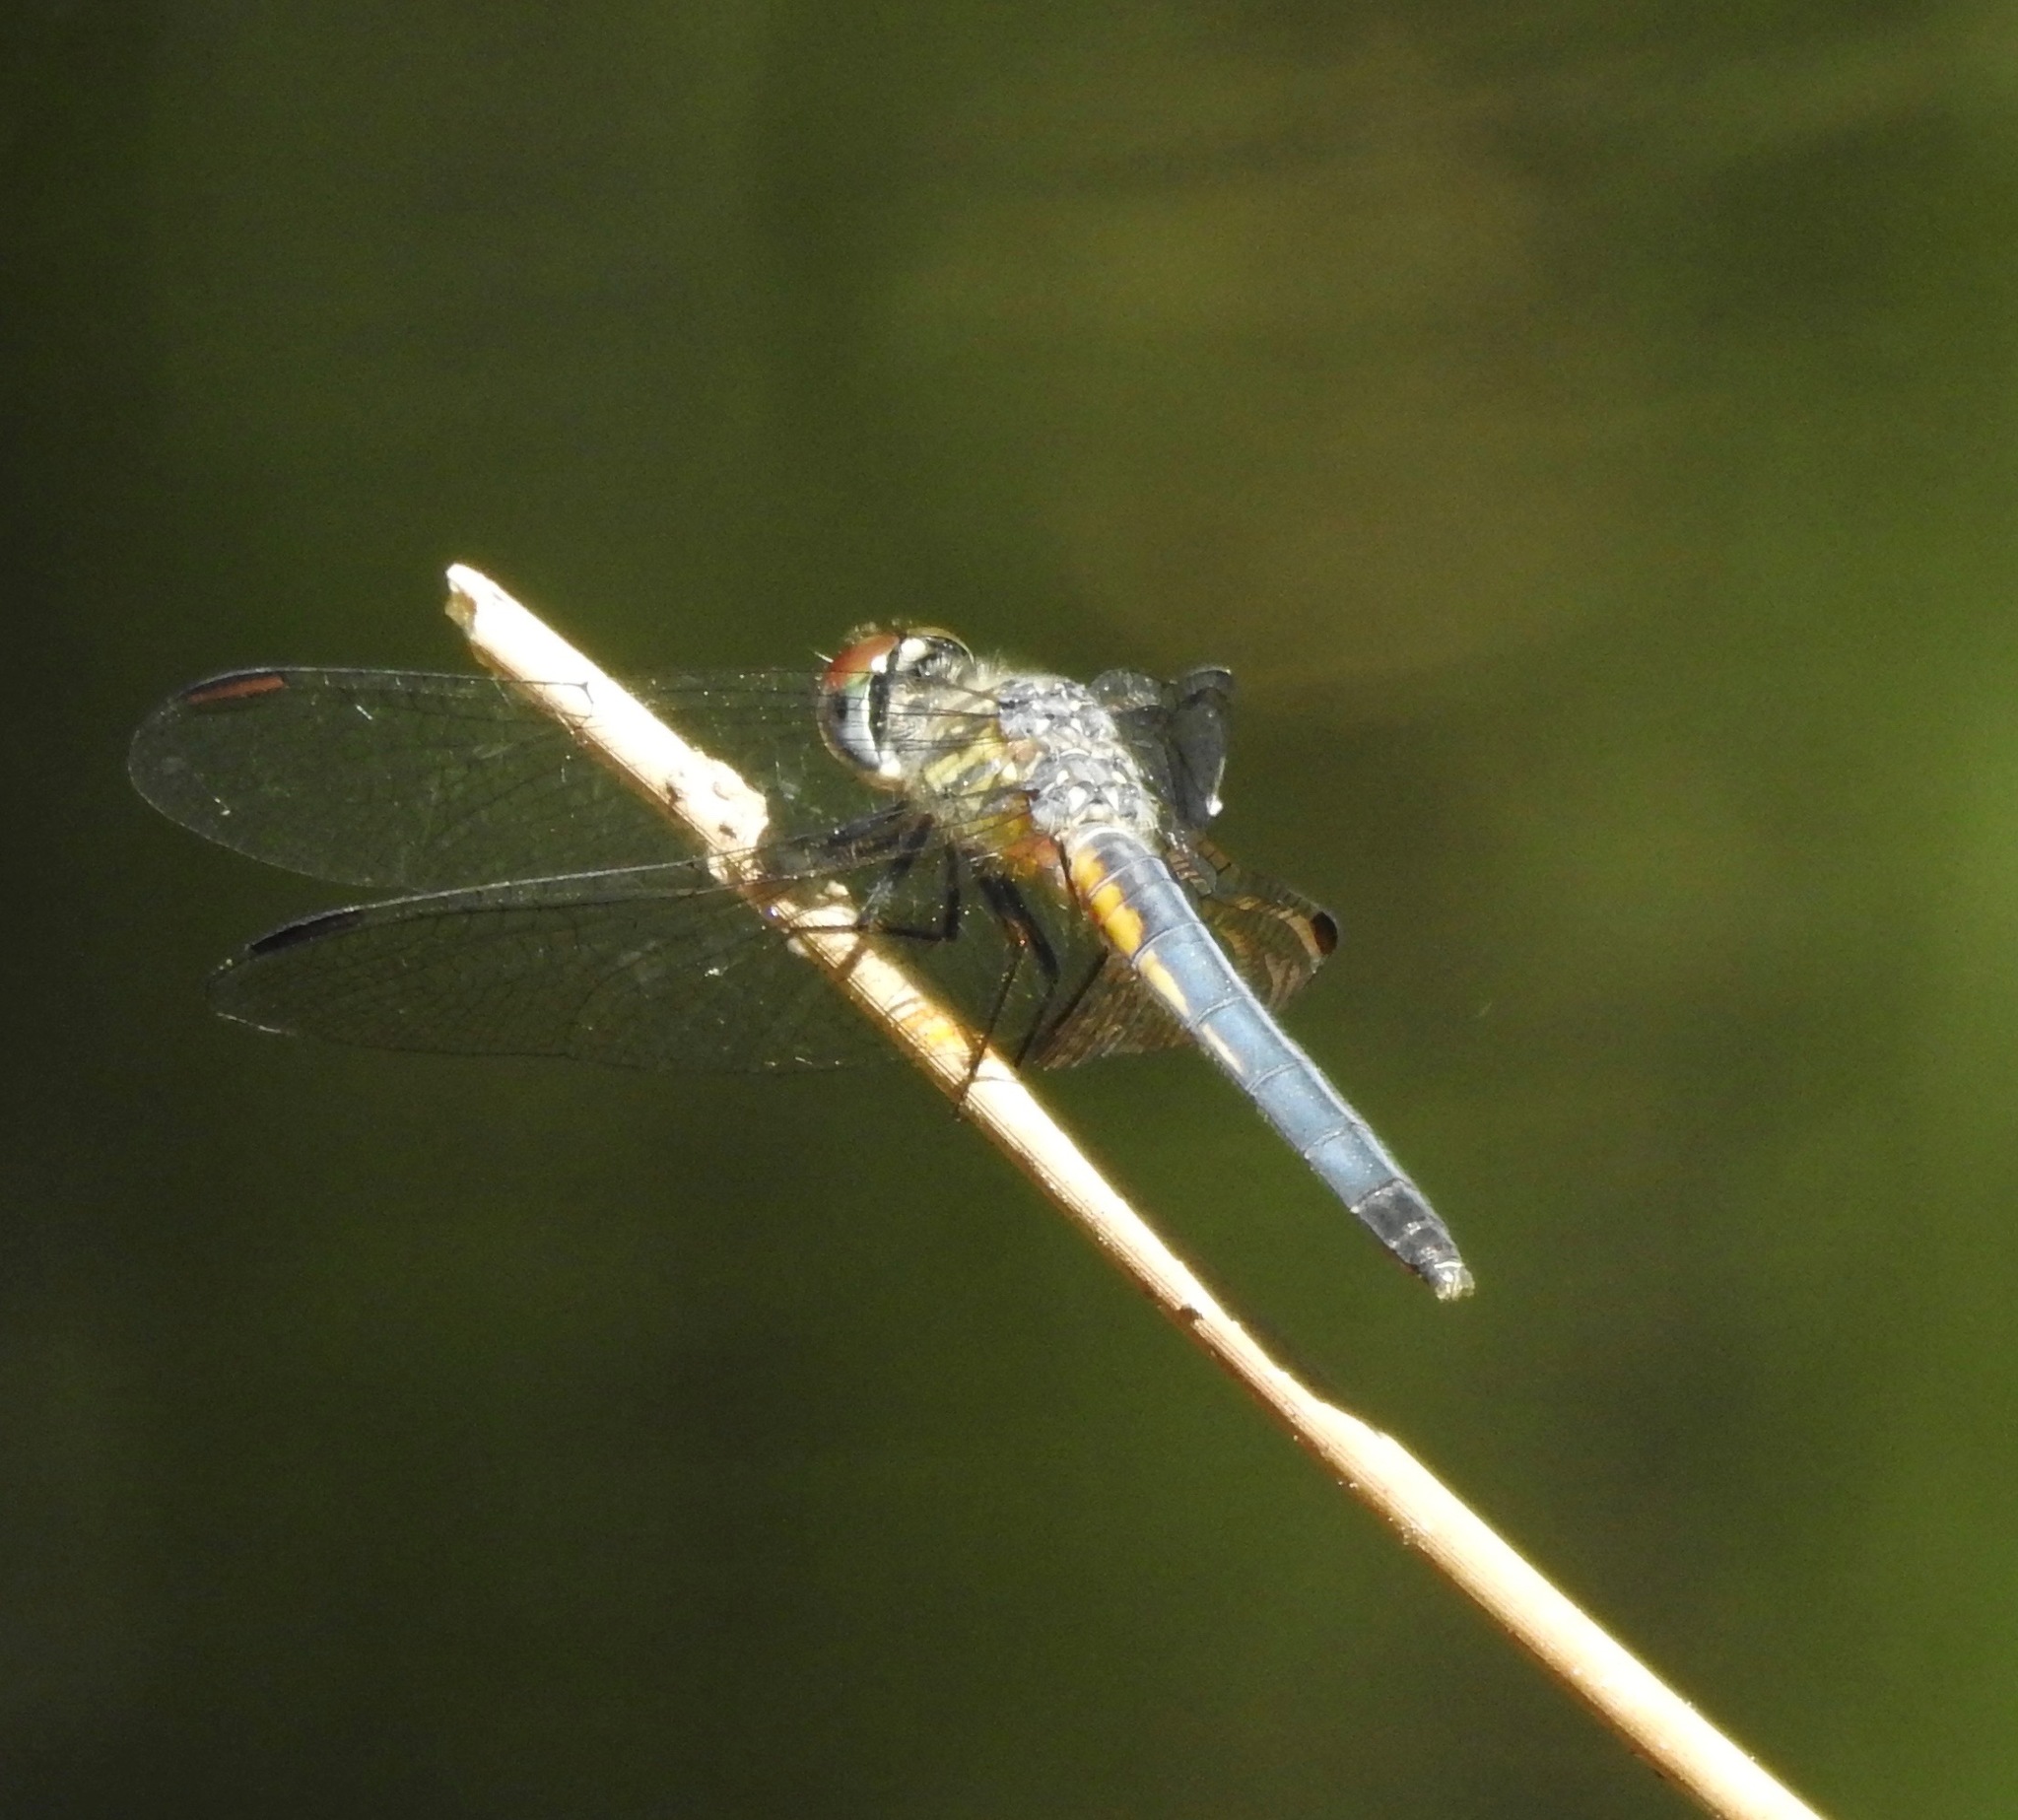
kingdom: Animalia
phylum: Arthropoda
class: Insecta
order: Odonata
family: Libellulidae
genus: Pachydiplax
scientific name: Pachydiplax longipennis
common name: Blue dasher
